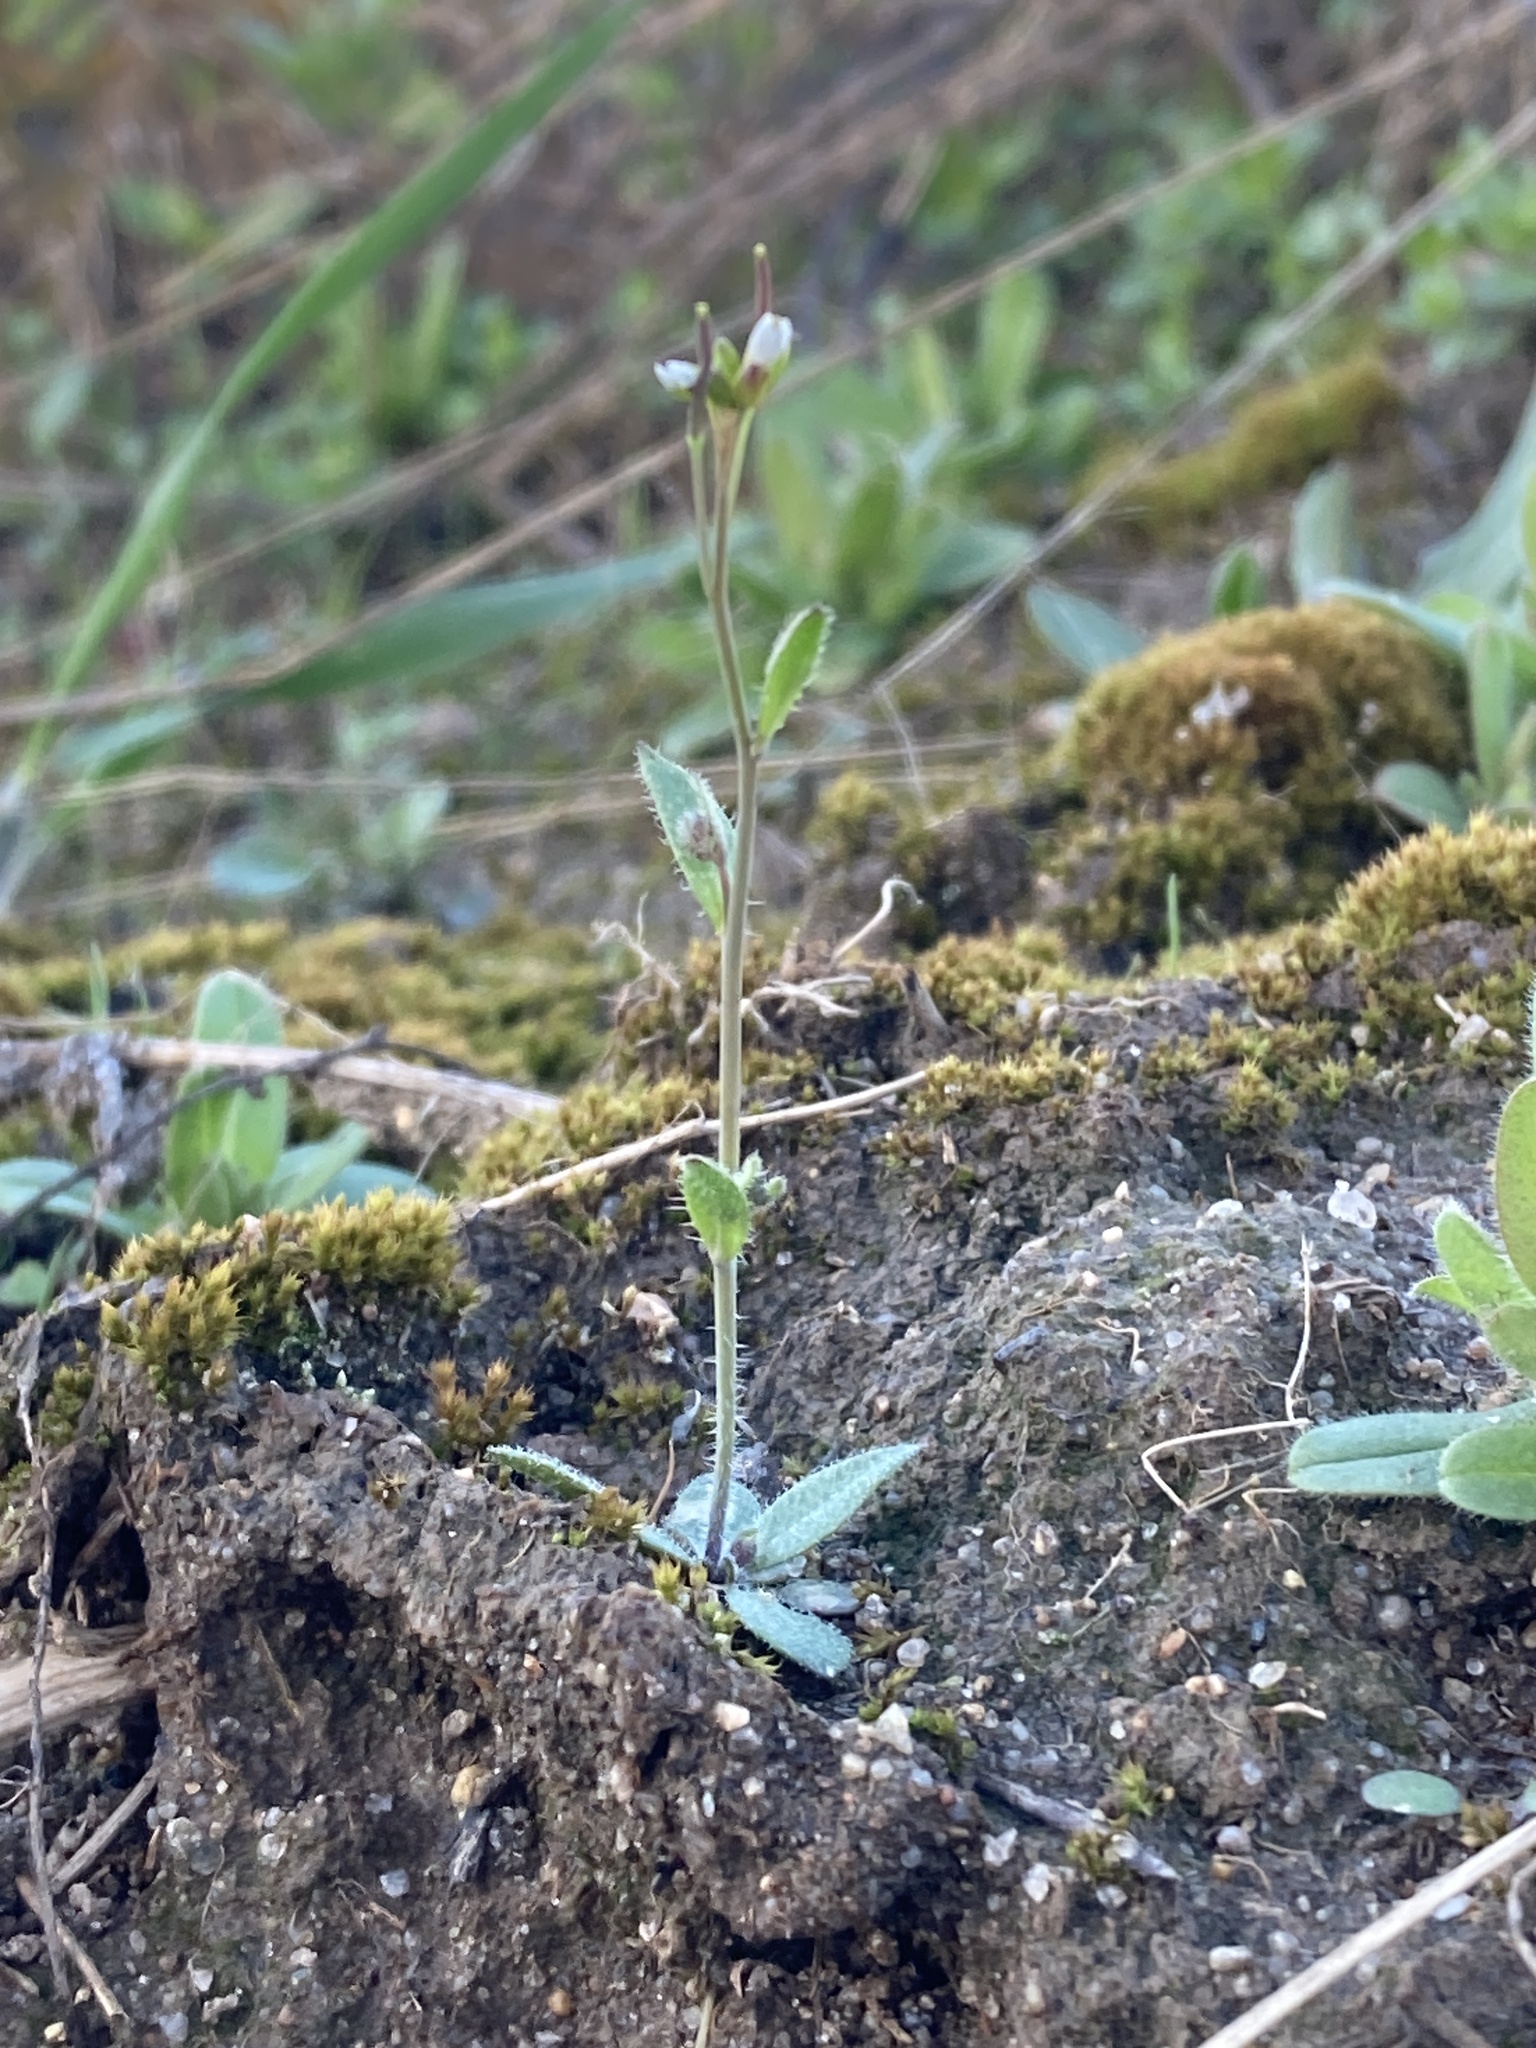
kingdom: Plantae
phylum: Tracheophyta
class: Magnoliopsida
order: Brassicales
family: Brassicaceae
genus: Arabidopsis
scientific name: Arabidopsis thaliana
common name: Thale cress
